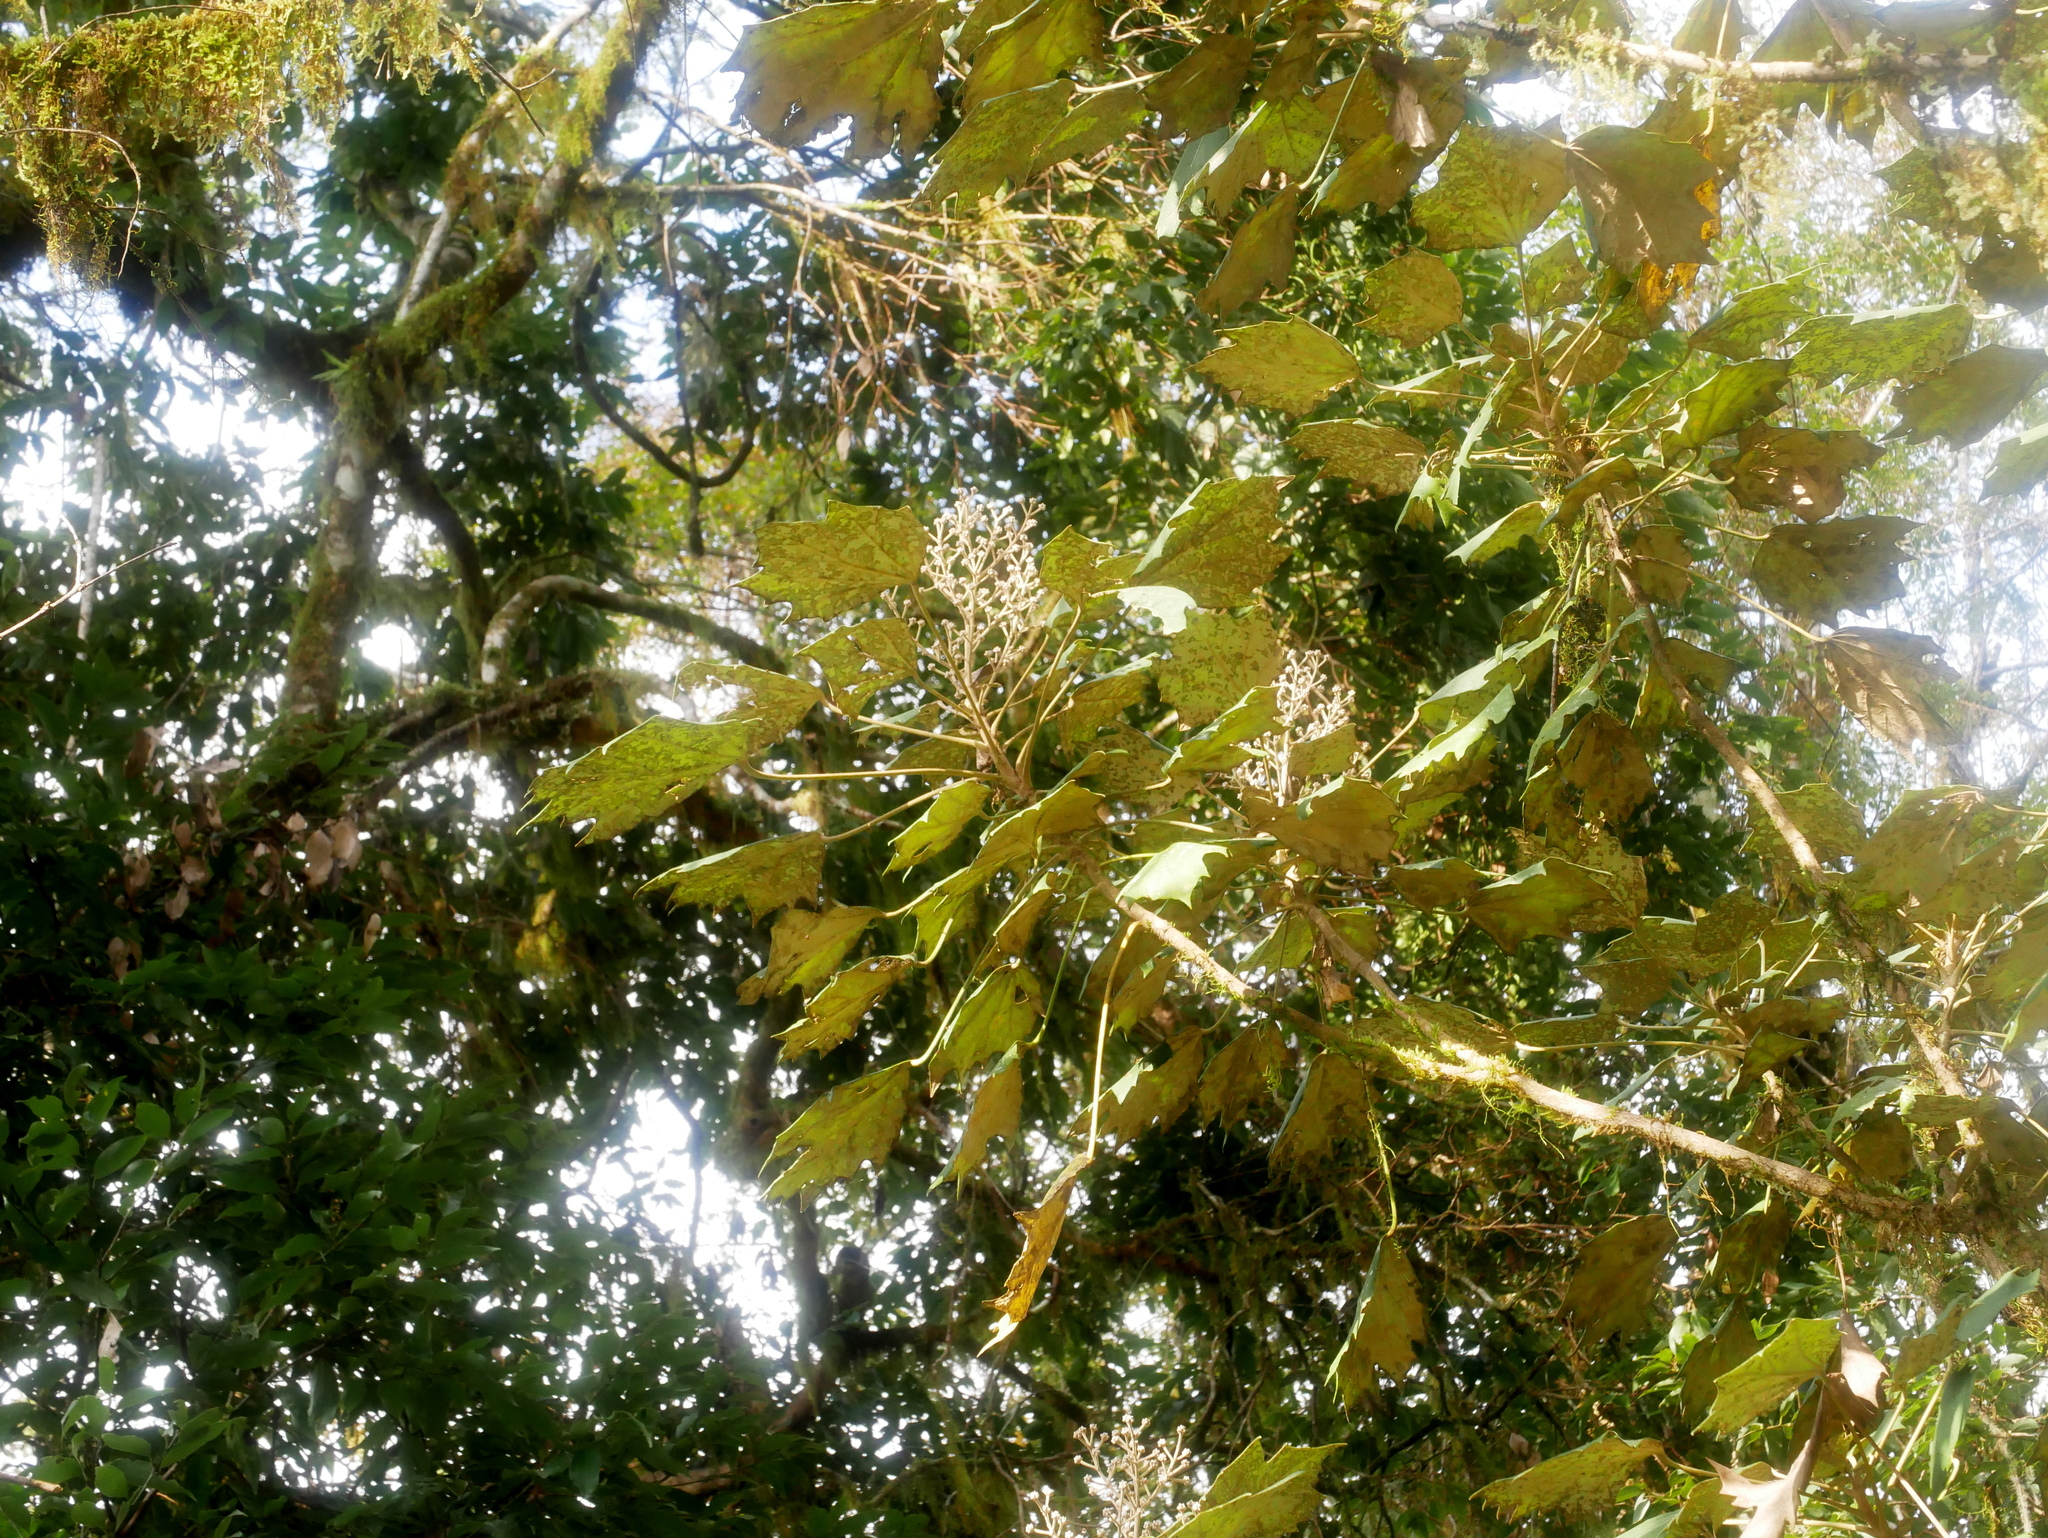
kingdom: Plantae
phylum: Tracheophyta
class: Magnoliopsida
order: Apiales
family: Araliaceae
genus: Sinopanax
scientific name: Sinopanax formosanus
